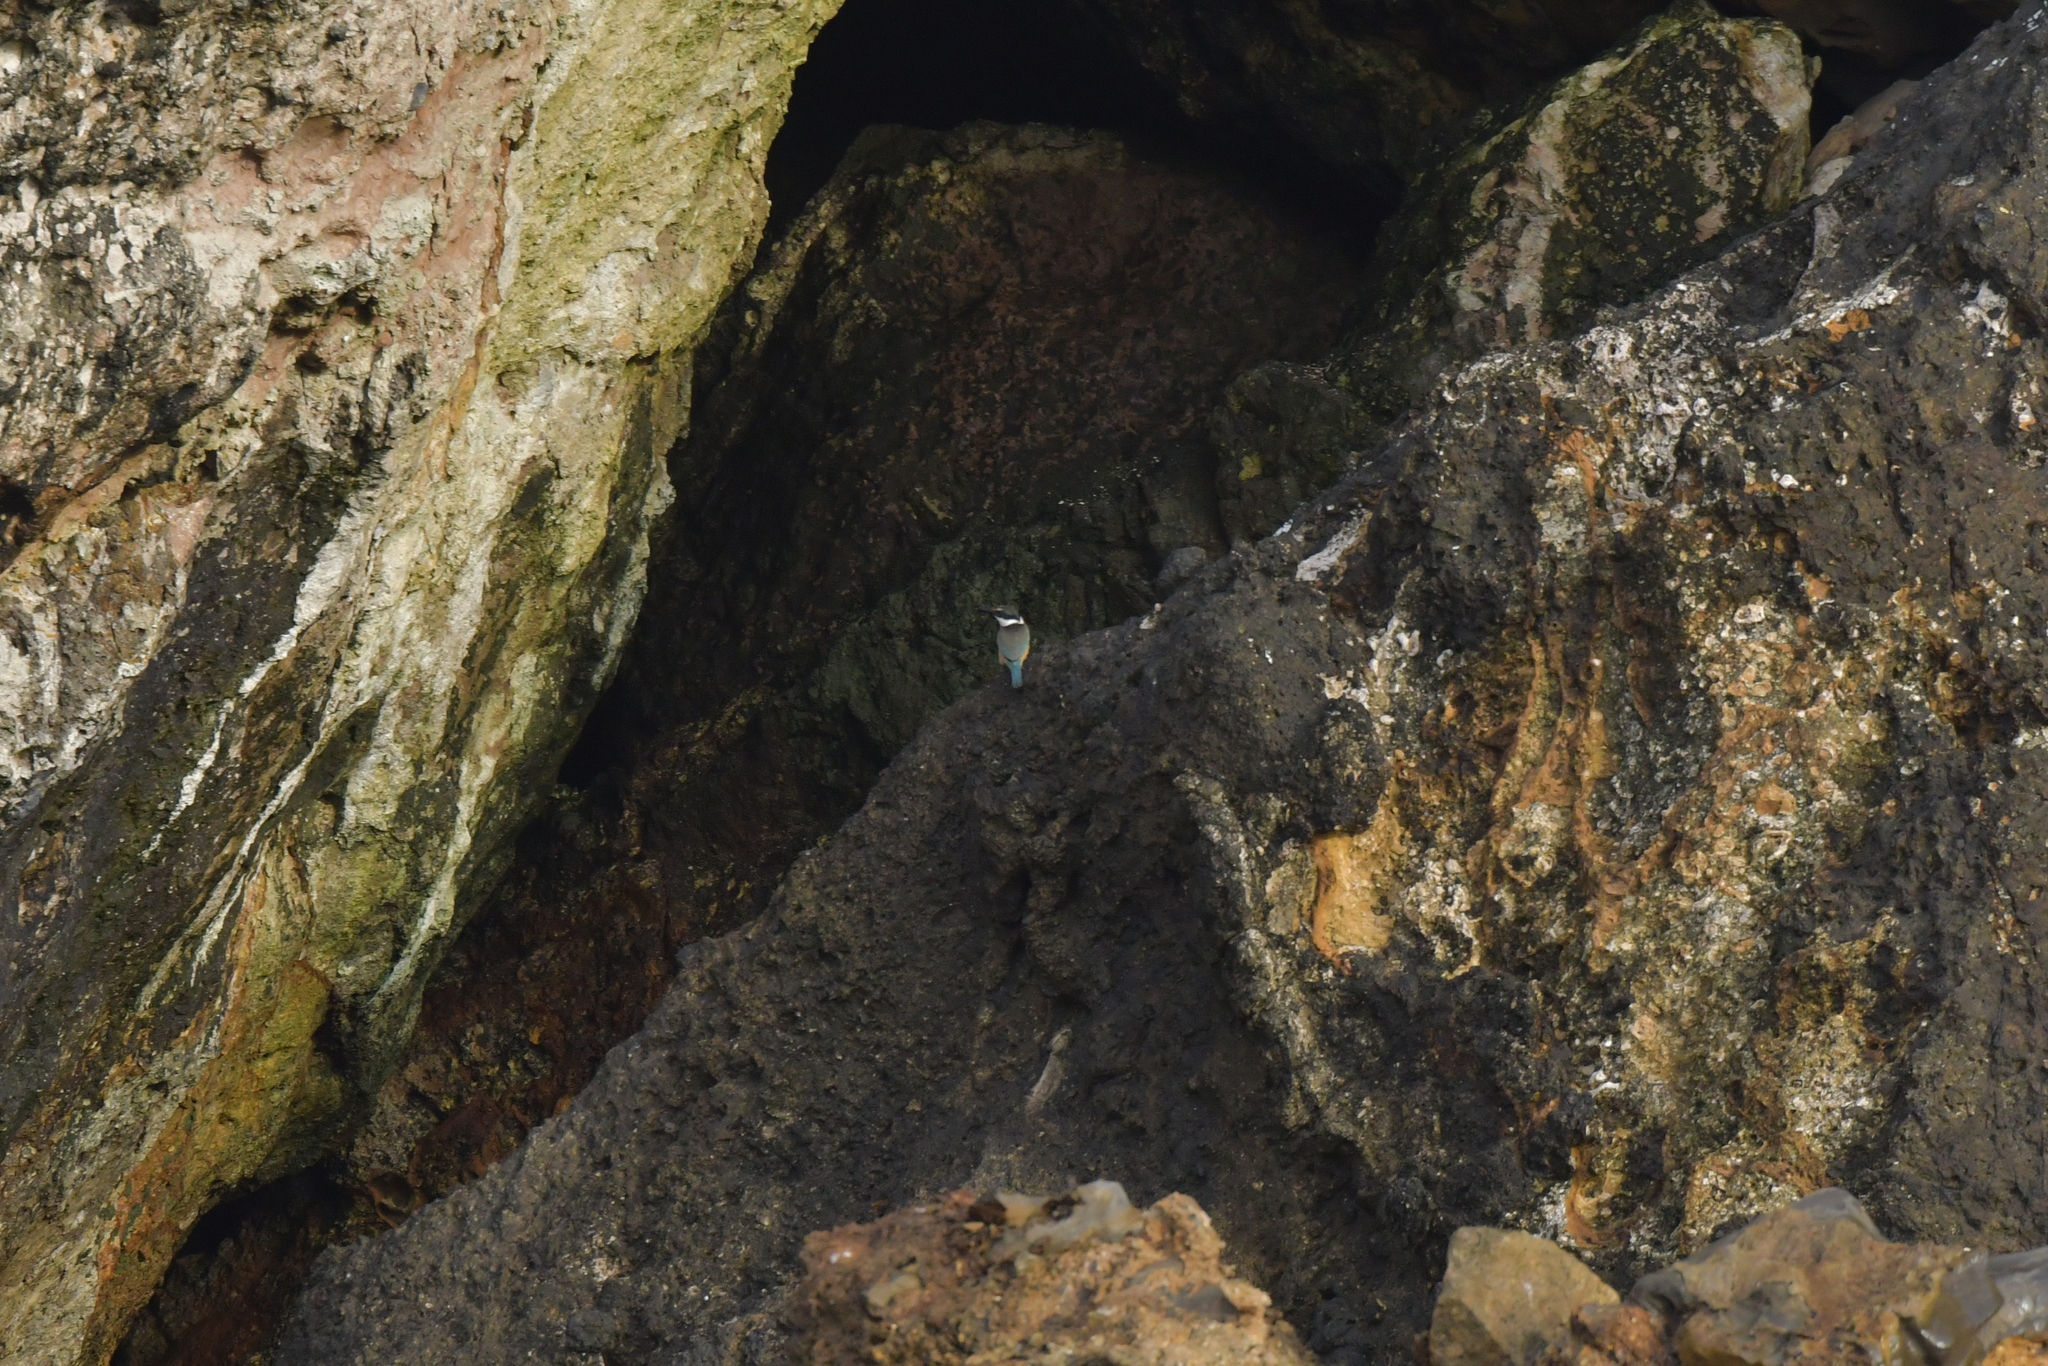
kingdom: Animalia
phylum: Chordata
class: Aves
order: Coraciiformes
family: Alcedinidae
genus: Todiramphus
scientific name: Todiramphus sanctus
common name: Sacred kingfisher
